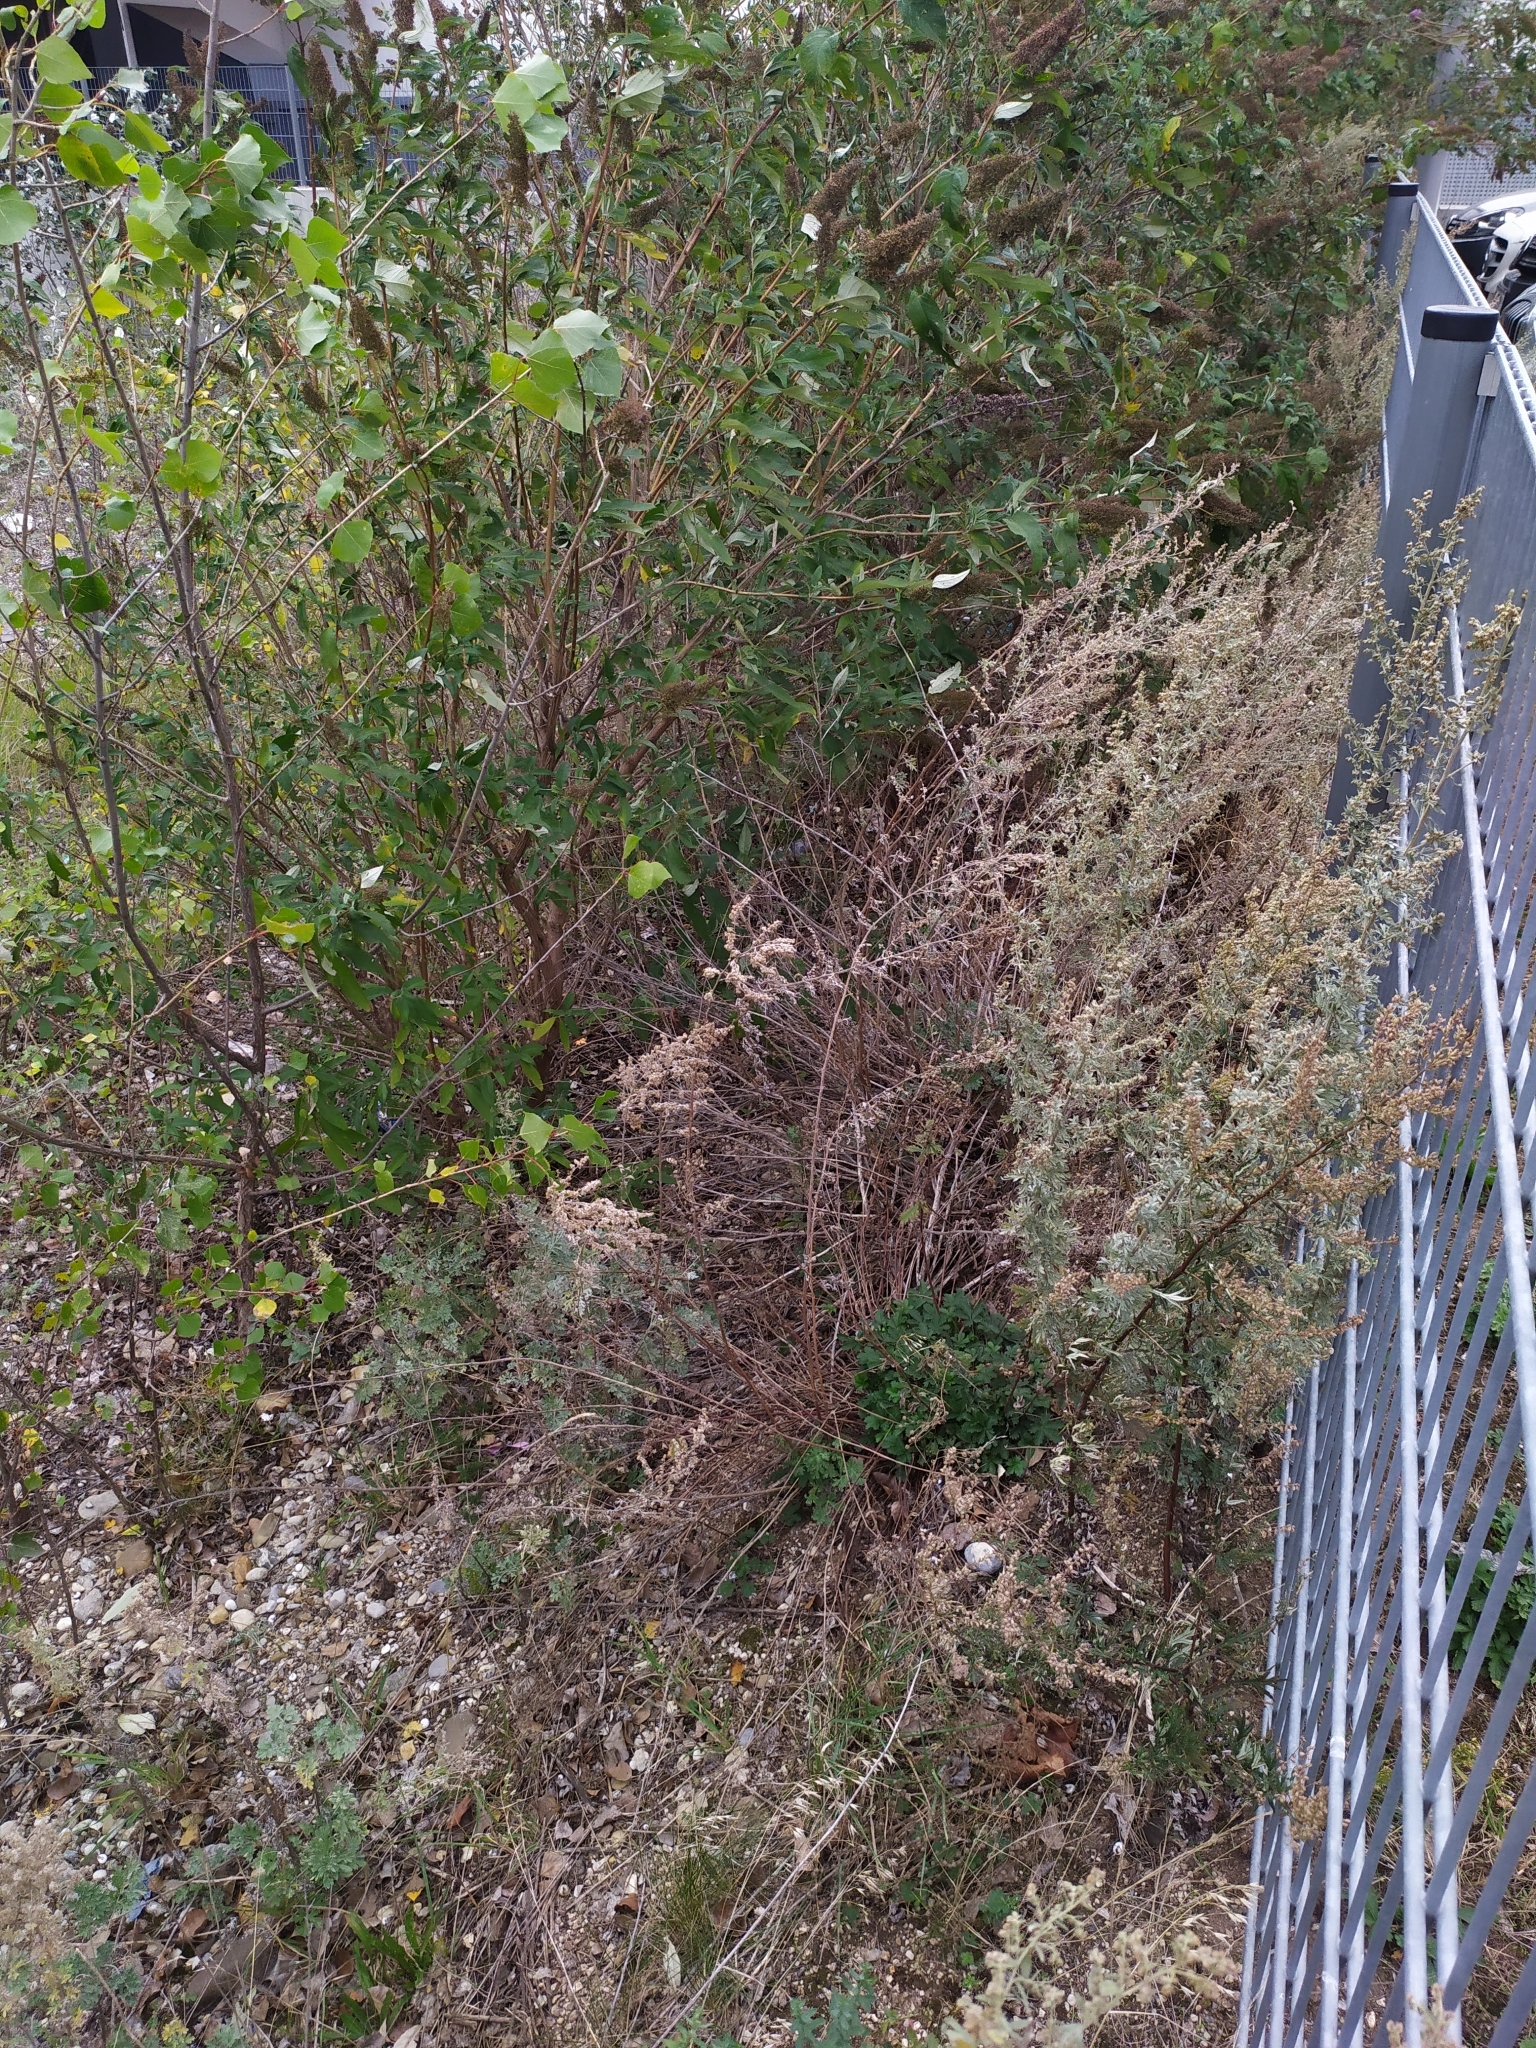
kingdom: Plantae
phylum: Tracheophyta
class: Magnoliopsida
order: Asterales
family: Asteraceae
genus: Artemisia
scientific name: Artemisia absinthium
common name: Wormwood
